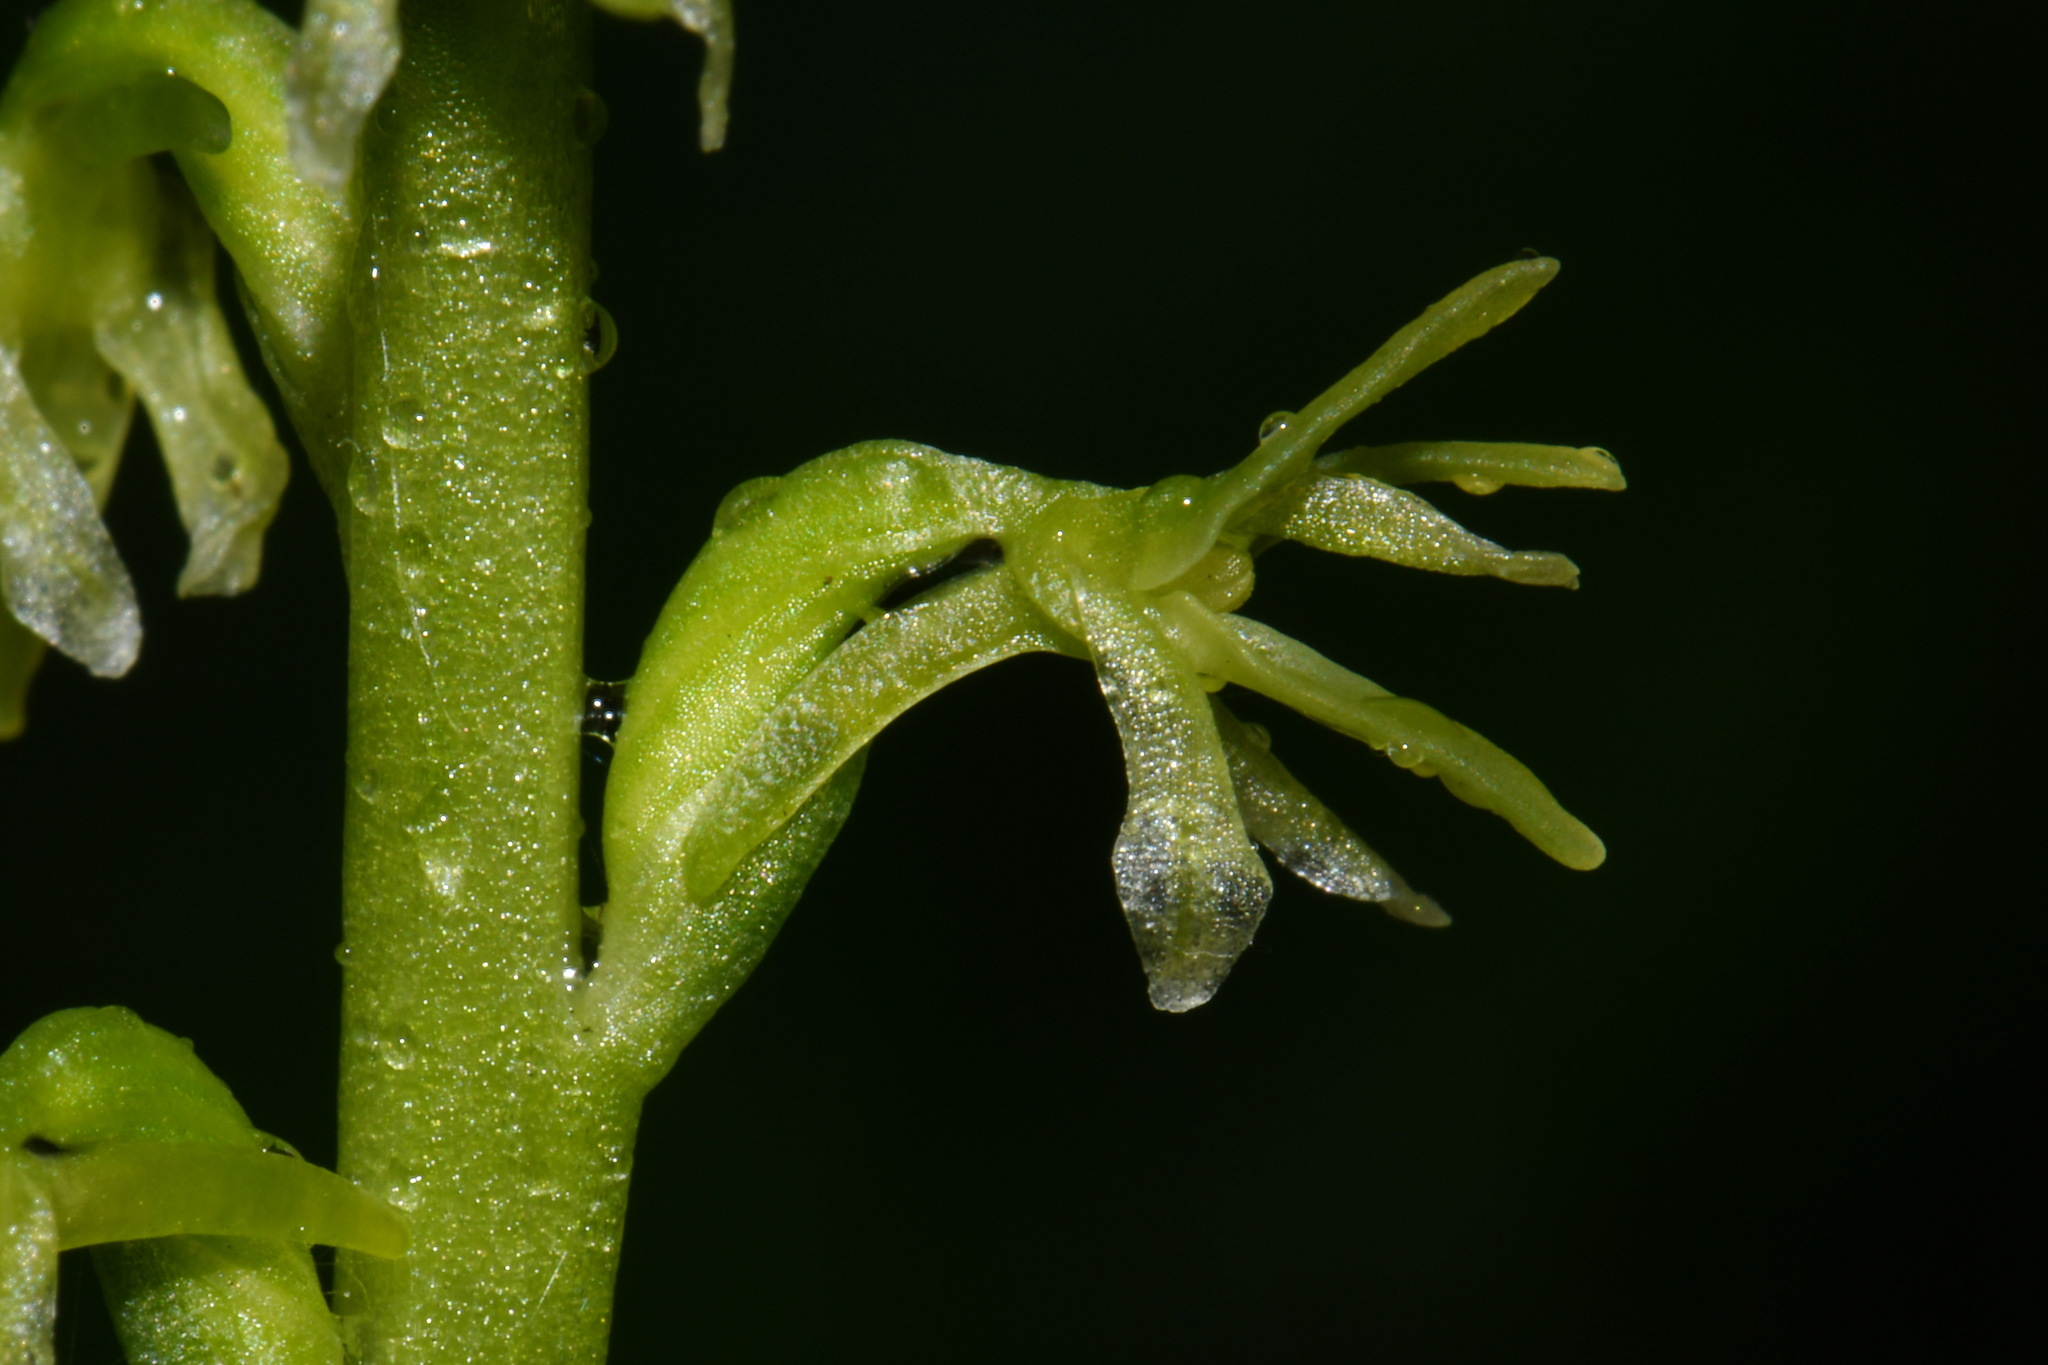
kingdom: Plantae
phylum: Tracheophyta
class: Liliopsida
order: Asparagales
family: Orchidaceae
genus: Platanthera
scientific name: Platanthera unalascensis
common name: Alaska bog orchid
